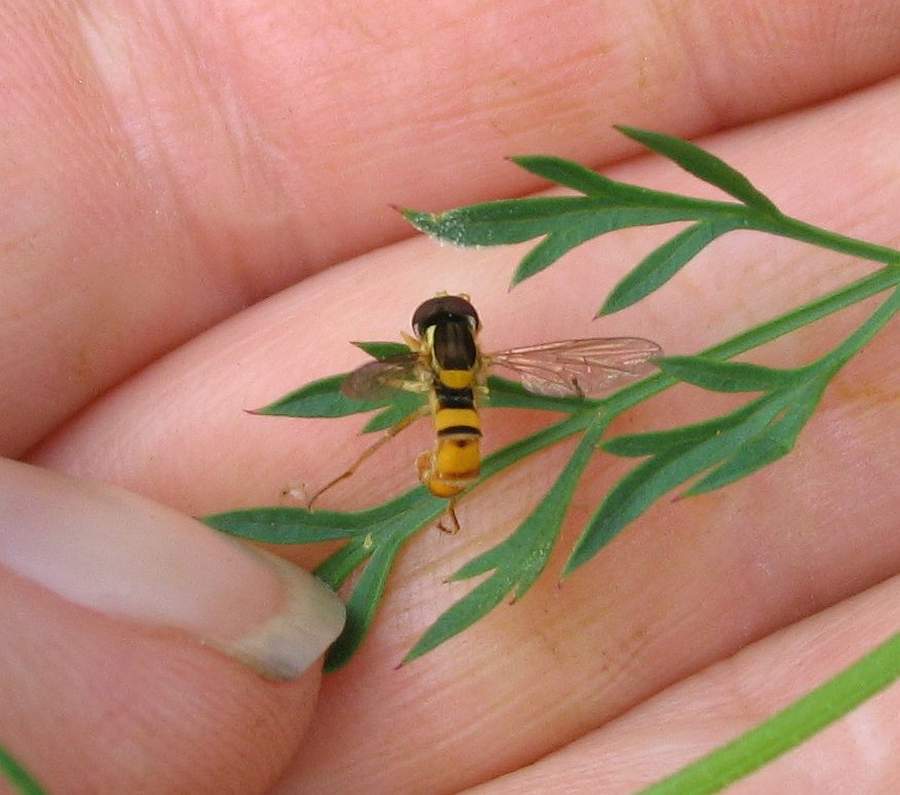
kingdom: Animalia
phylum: Arthropoda
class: Insecta
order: Diptera
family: Syrphidae
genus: Sphaerophoria
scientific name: Sphaerophoria
